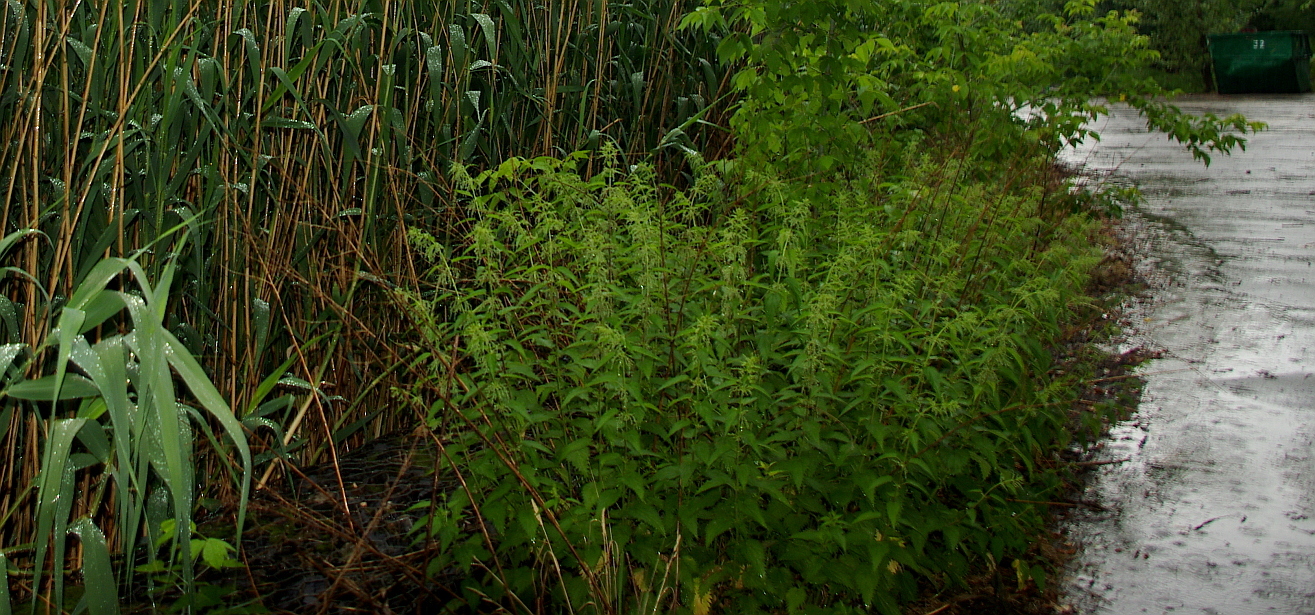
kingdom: Plantae
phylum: Tracheophyta
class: Magnoliopsida
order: Rosales
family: Urticaceae
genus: Urtica
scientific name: Urtica dioica
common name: Common nettle
